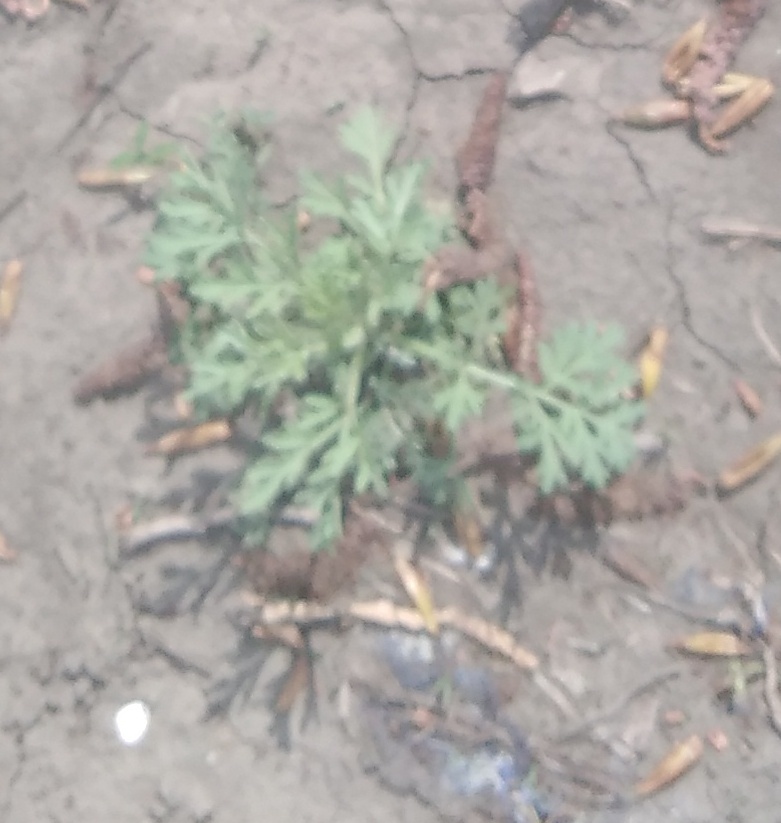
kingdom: Plantae
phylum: Tracheophyta
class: Magnoliopsida
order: Asterales
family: Asteraceae
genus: Artemisia
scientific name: Artemisia absinthium
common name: Wormwood
